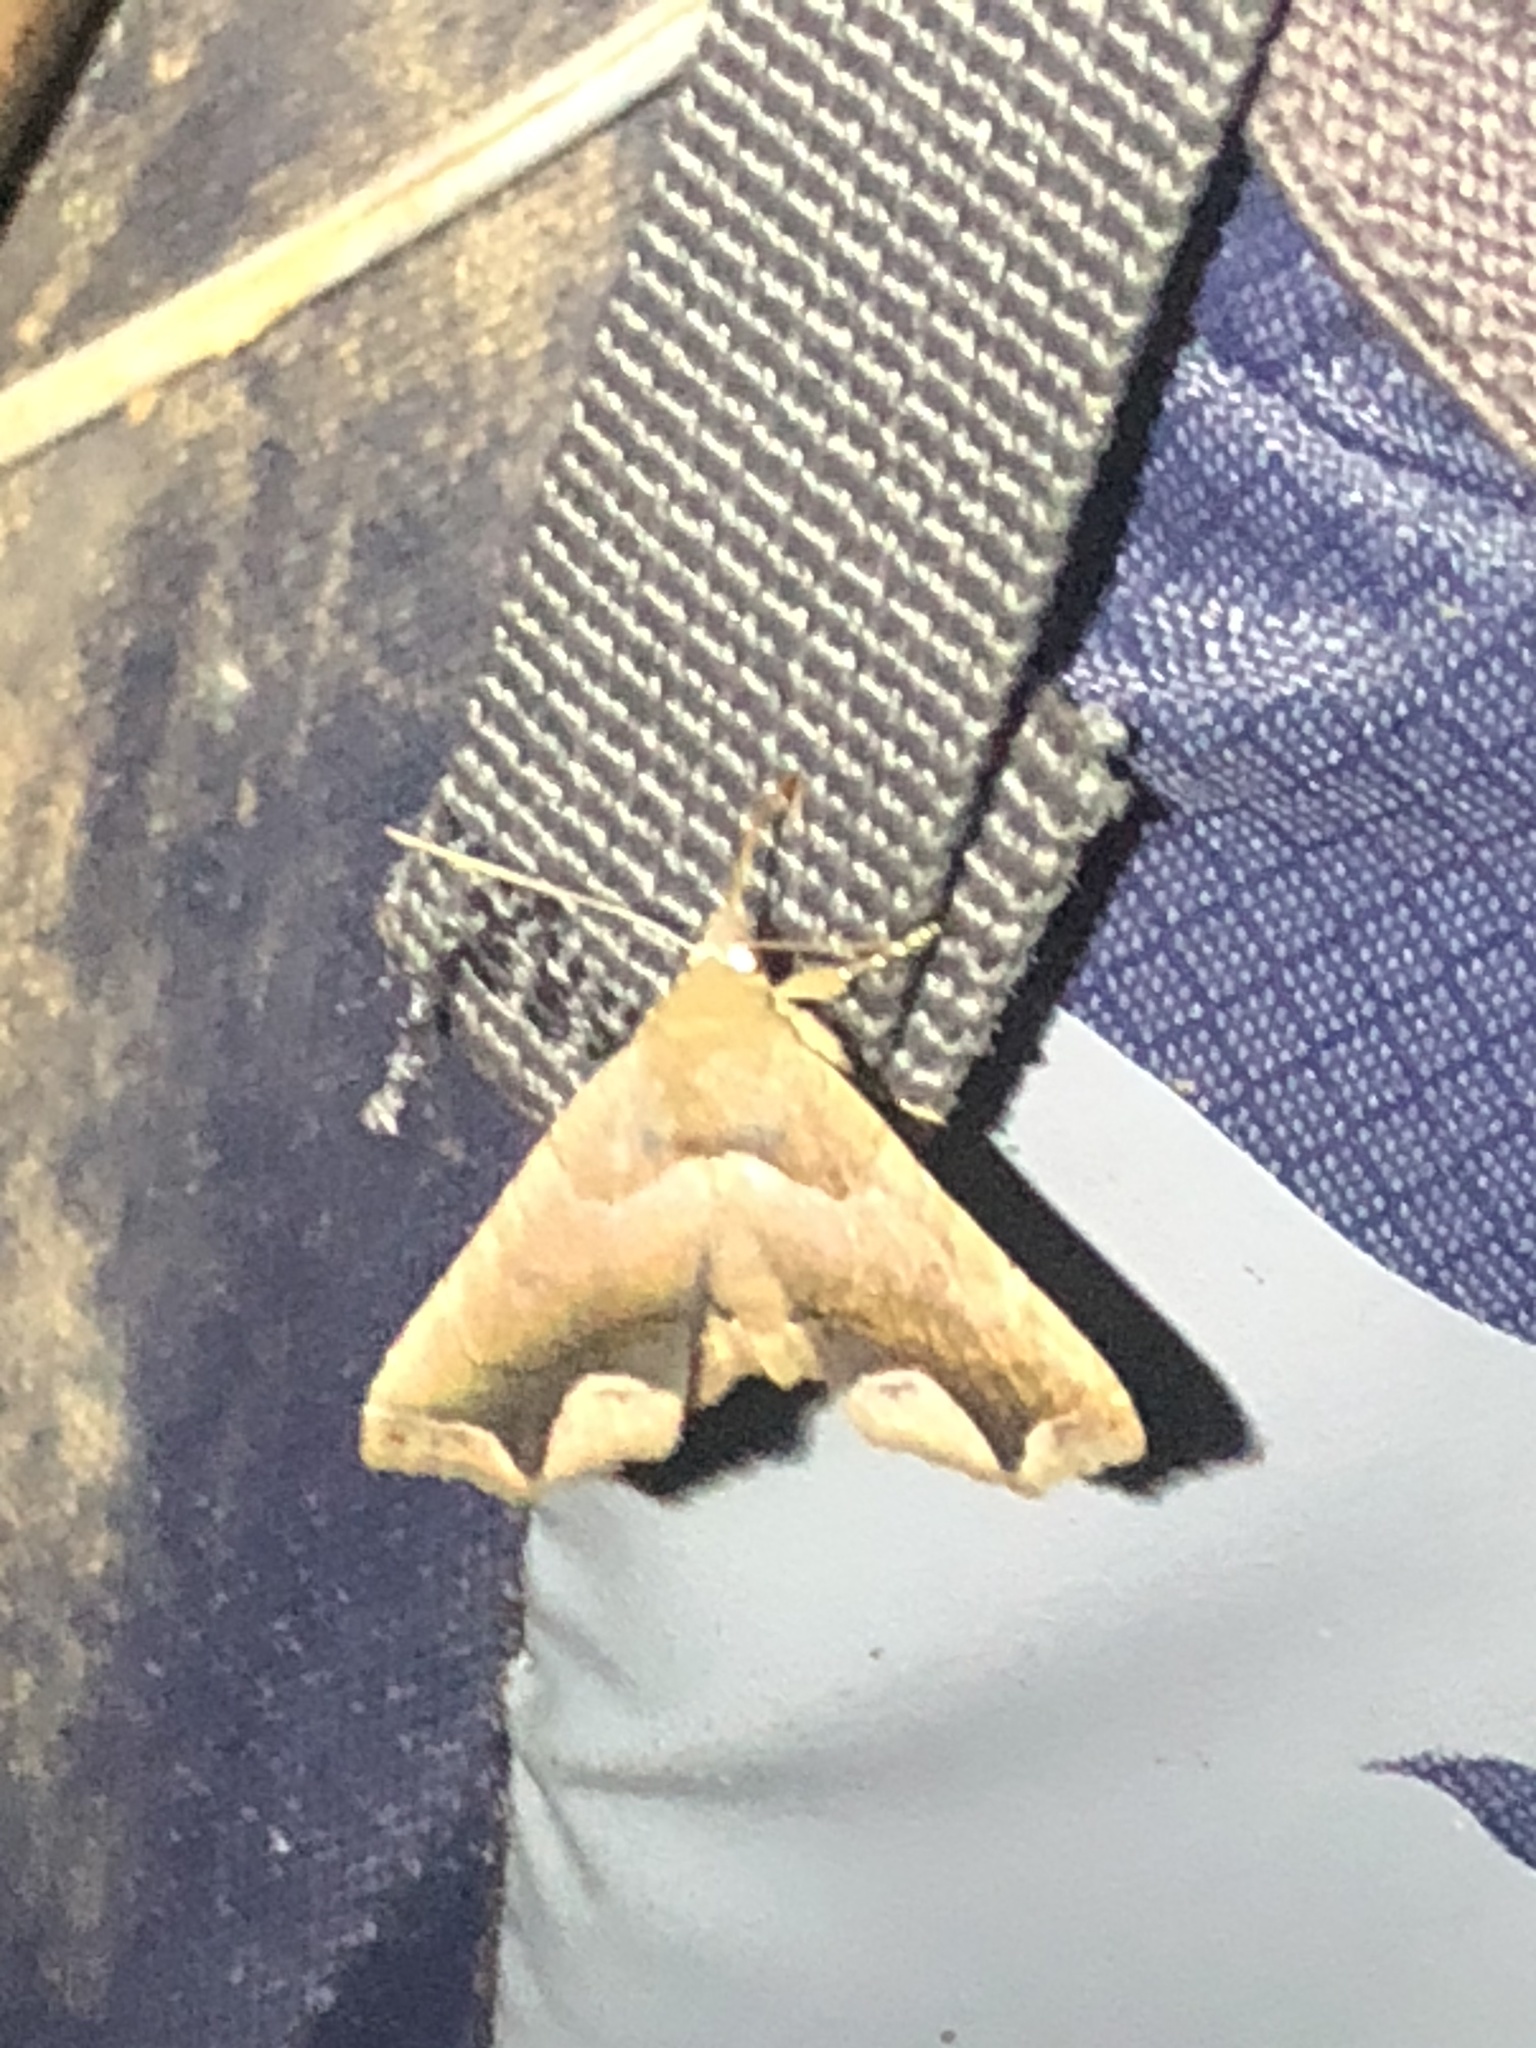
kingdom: Animalia
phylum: Arthropoda
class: Insecta
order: Lepidoptera
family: Erebidae
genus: Tyrissa
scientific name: Tyrissa acygonia
